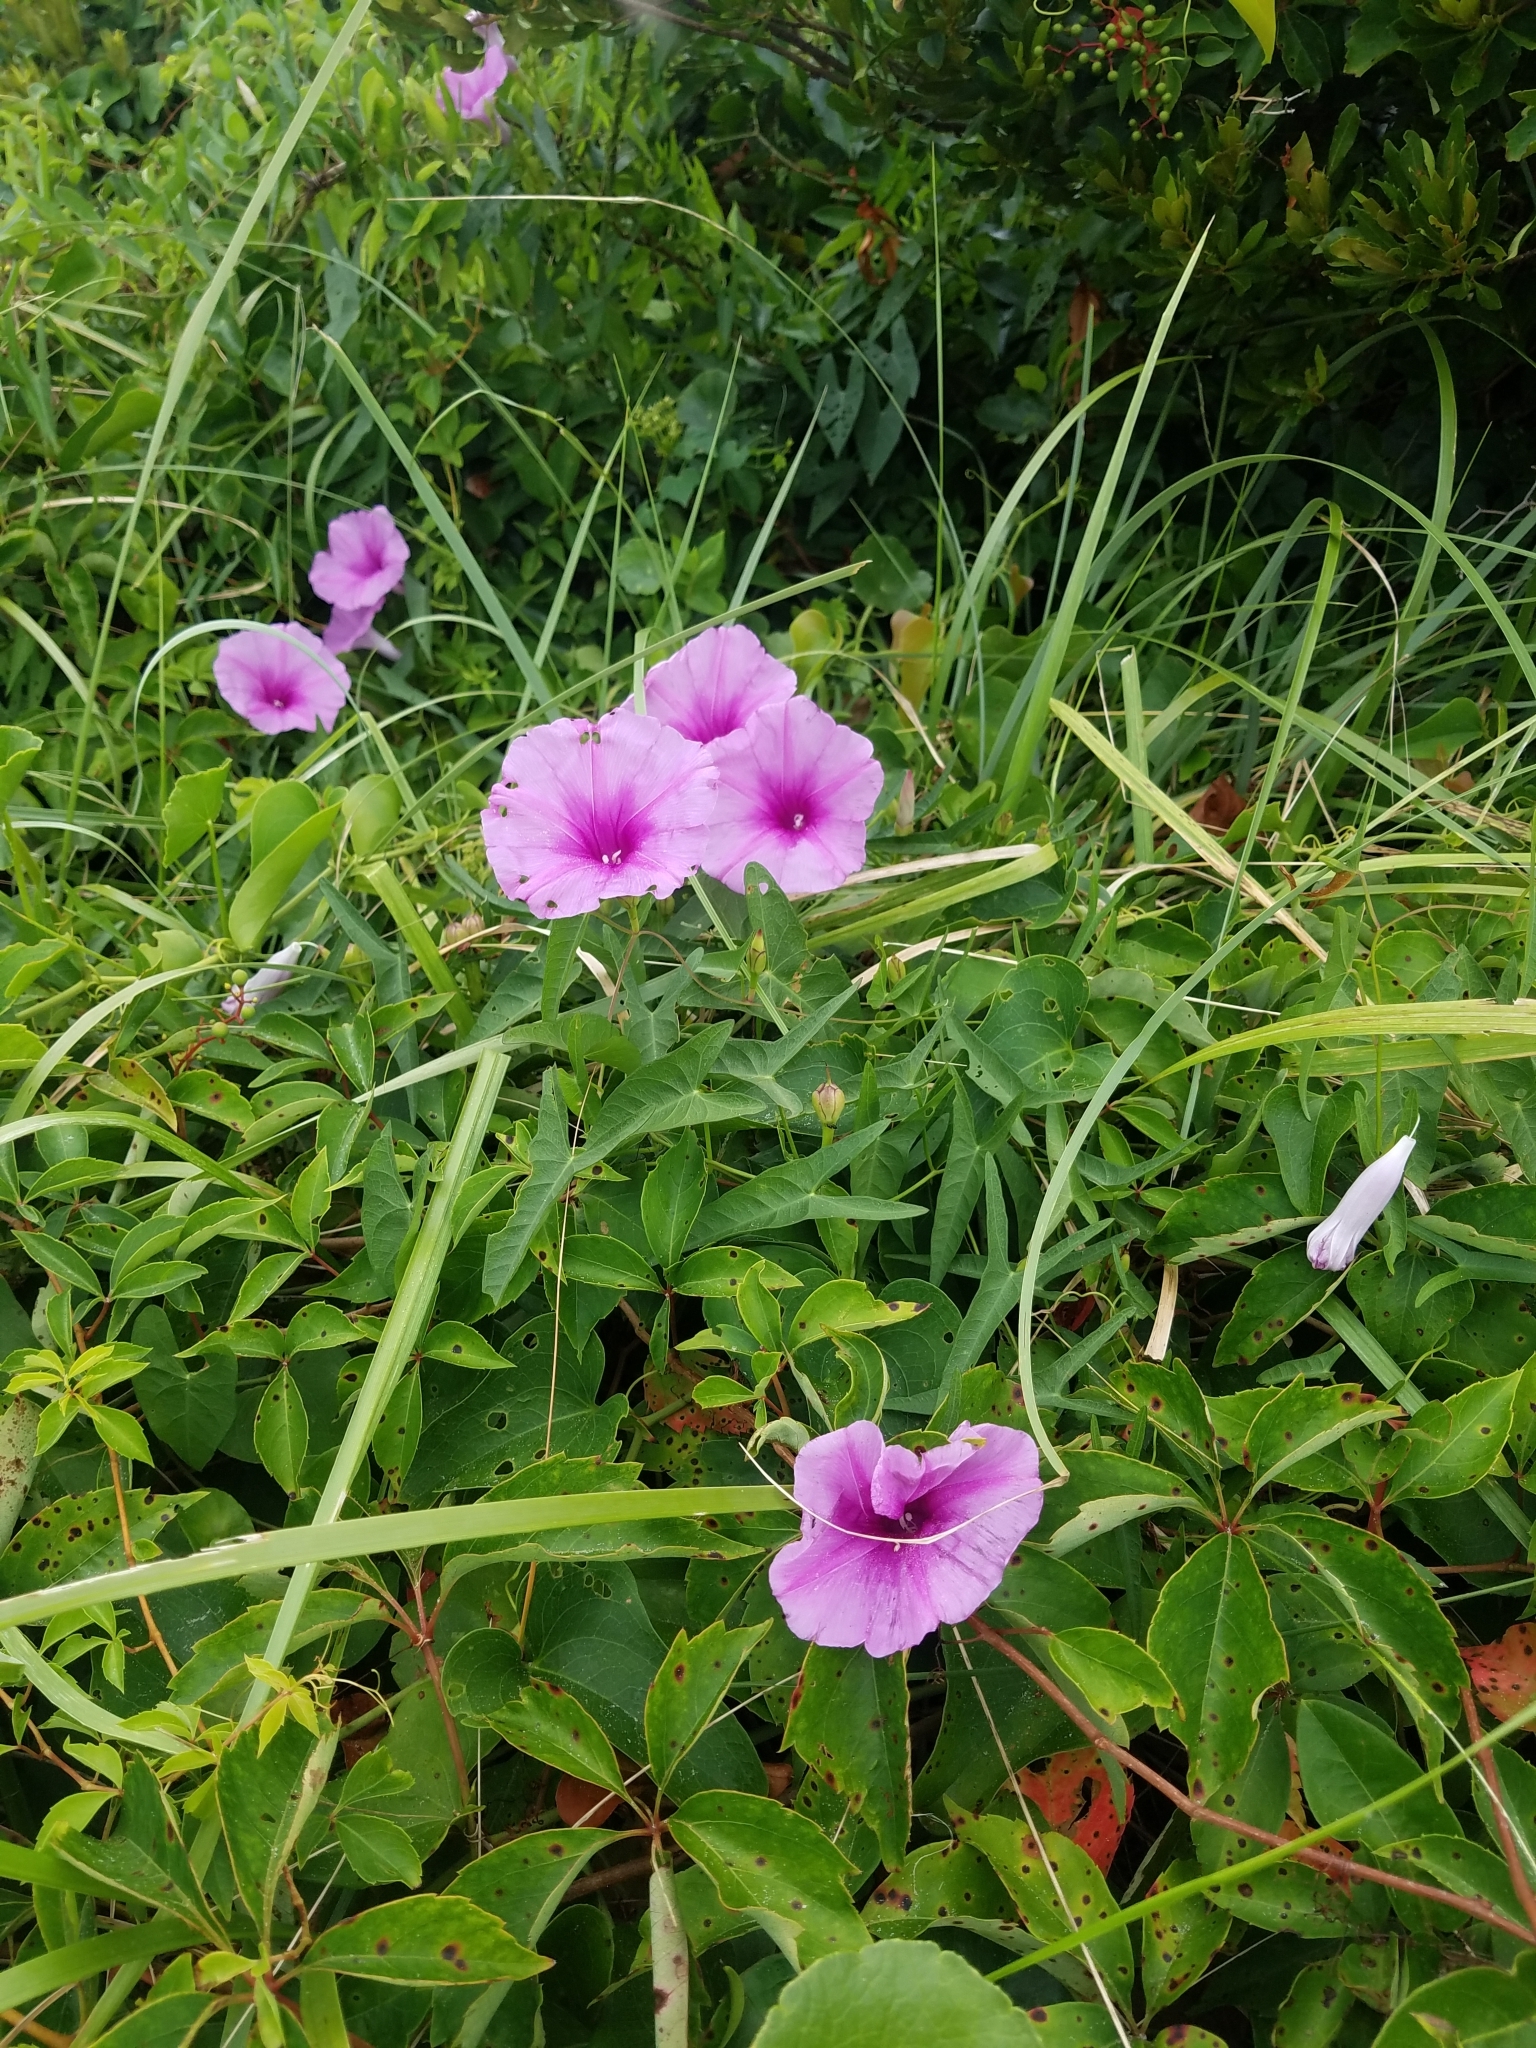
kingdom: Plantae
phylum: Tracheophyta
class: Magnoliopsida
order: Solanales
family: Convolvulaceae
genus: Ipomoea
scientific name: Ipomoea sagittata
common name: Saltmarsh morning glory
